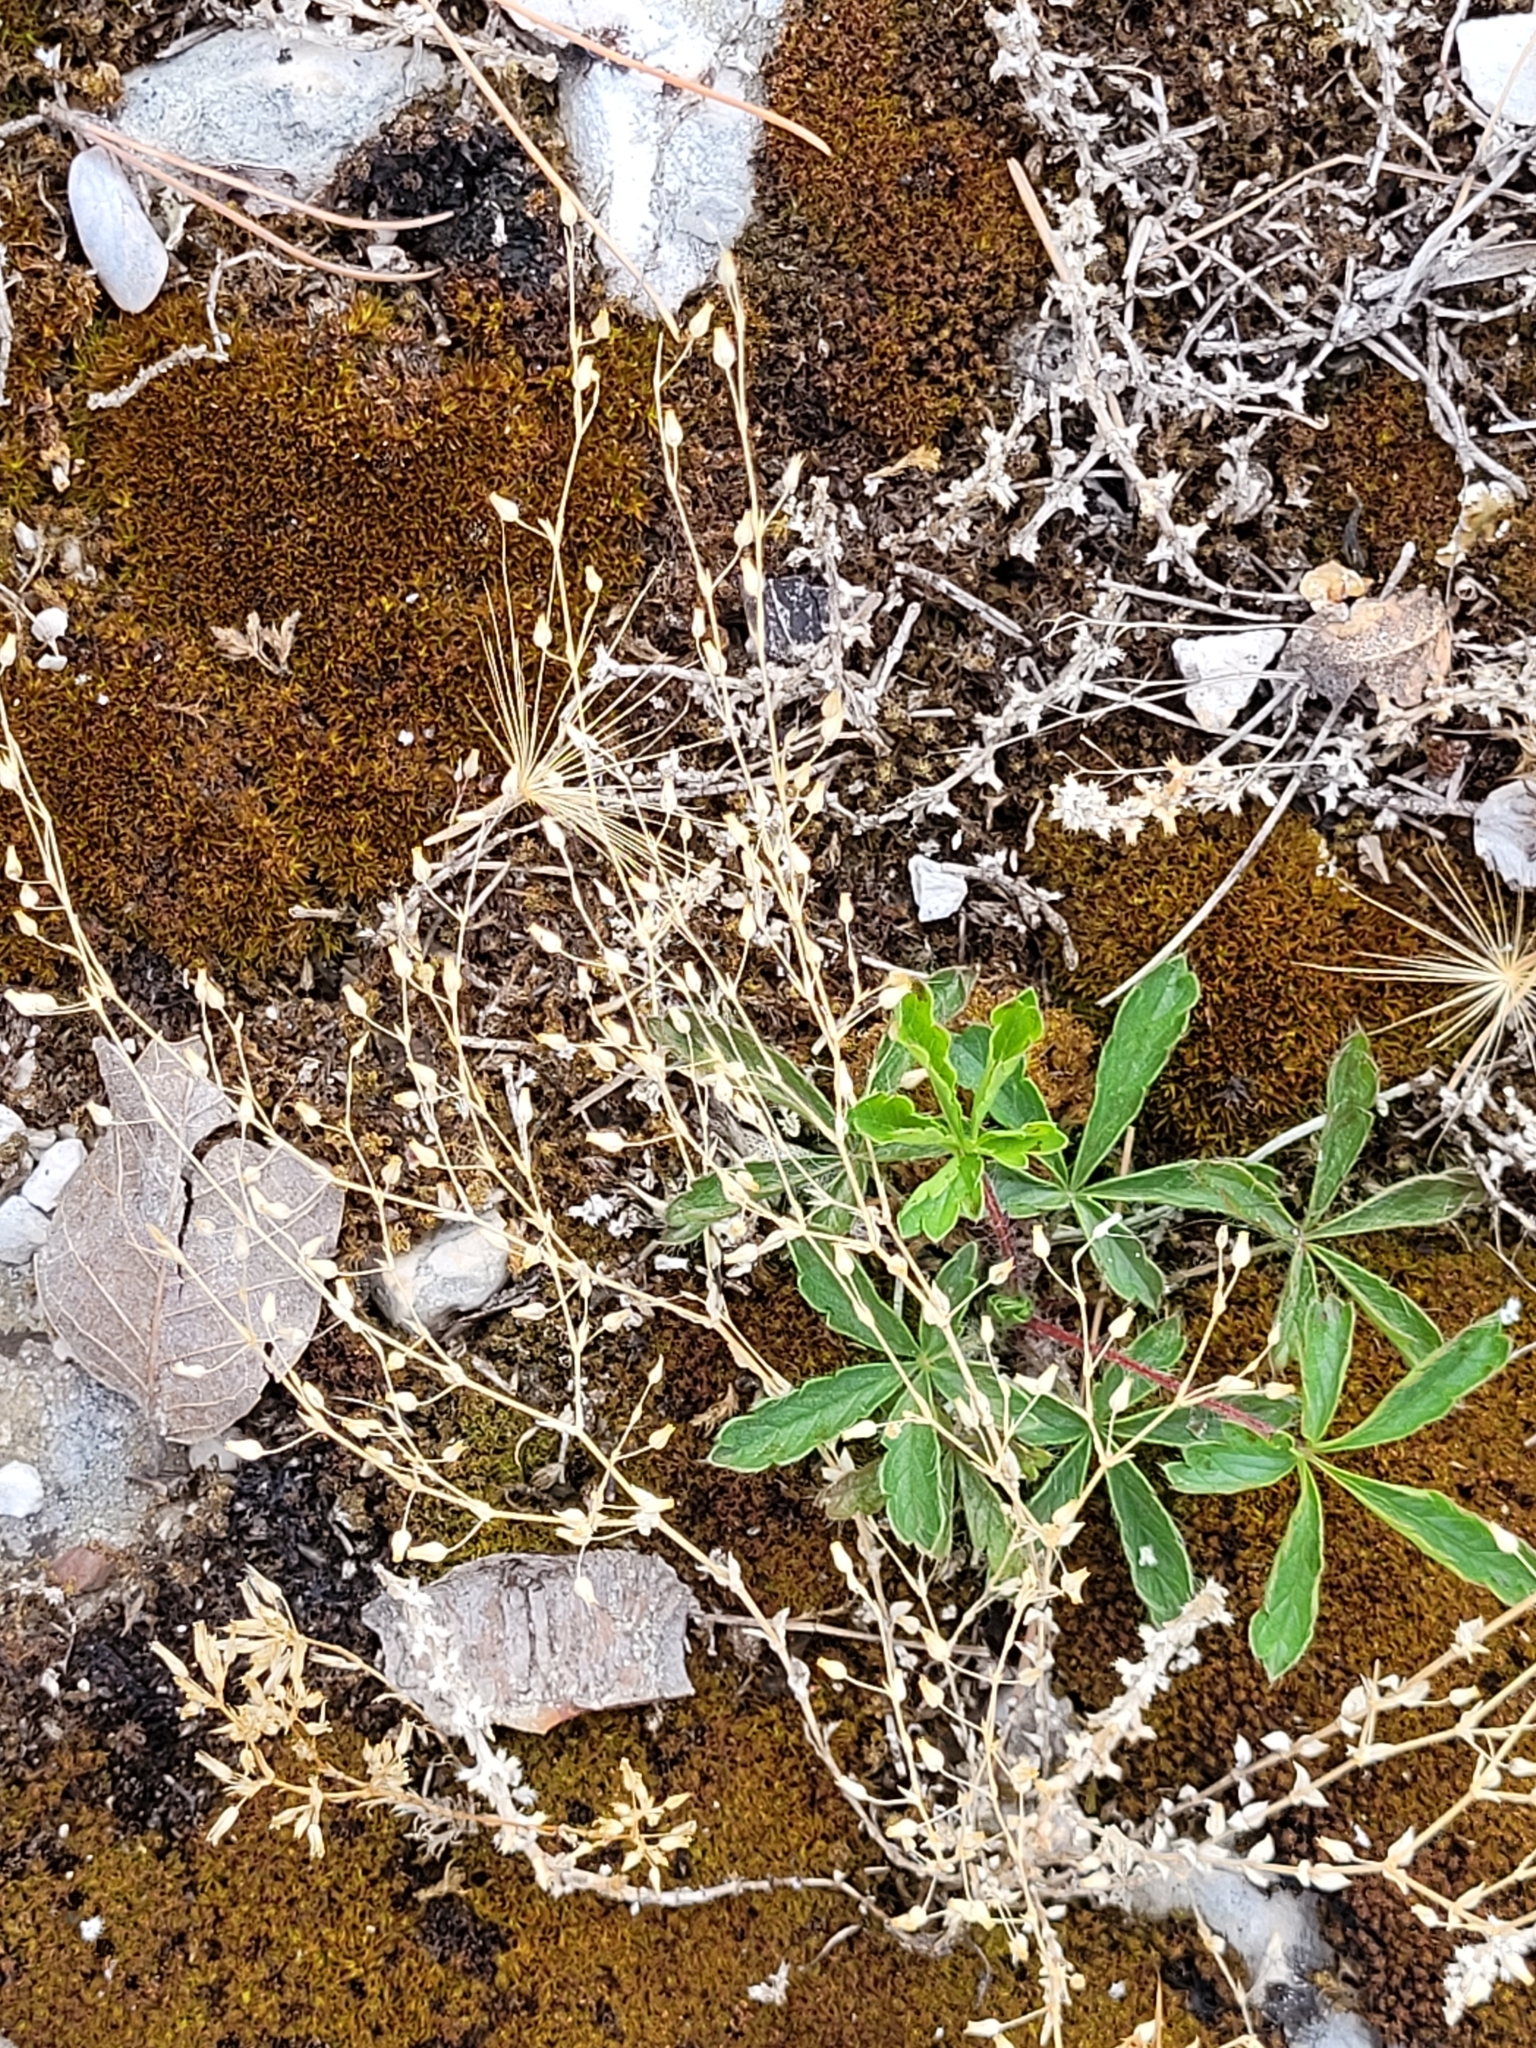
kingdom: Plantae
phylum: Tracheophyta
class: Magnoliopsida
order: Caryophyllales
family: Caryophyllaceae
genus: Arenaria
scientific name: Arenaria serpyllifolia
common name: Thyme-leaved sandwort
